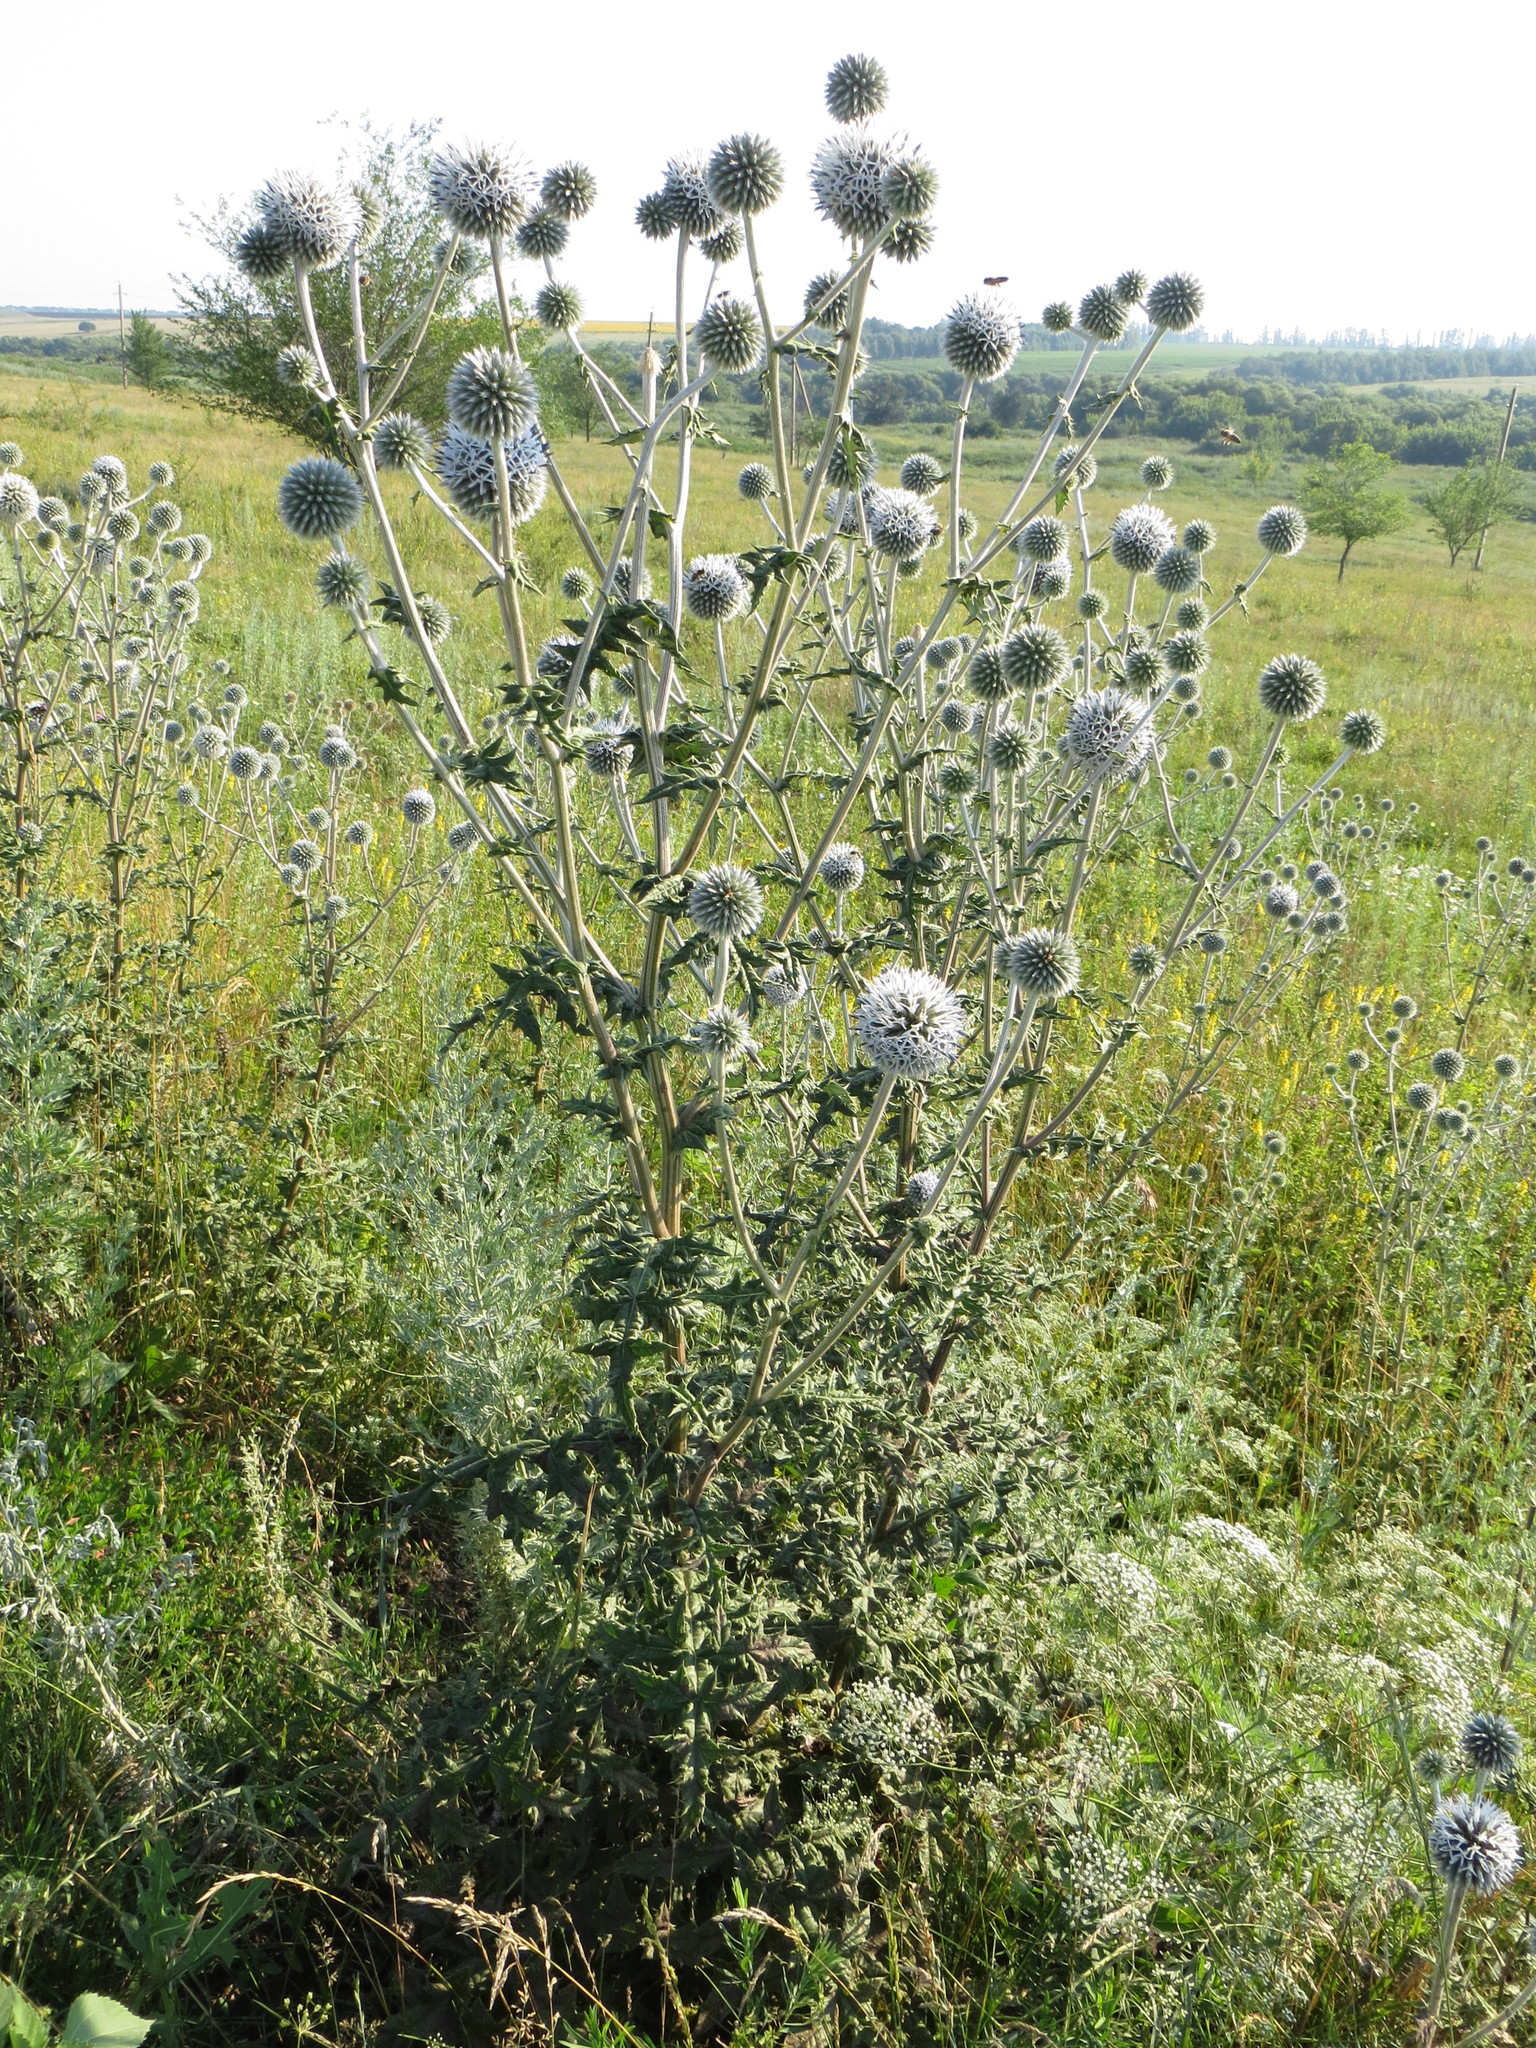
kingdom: Plantae
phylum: Tracheophyta
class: Magnoliopsida
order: Asterales
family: Asteraceae
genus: Echinops
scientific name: Echinops sphaerocephalus
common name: Glandular globe-thistle
